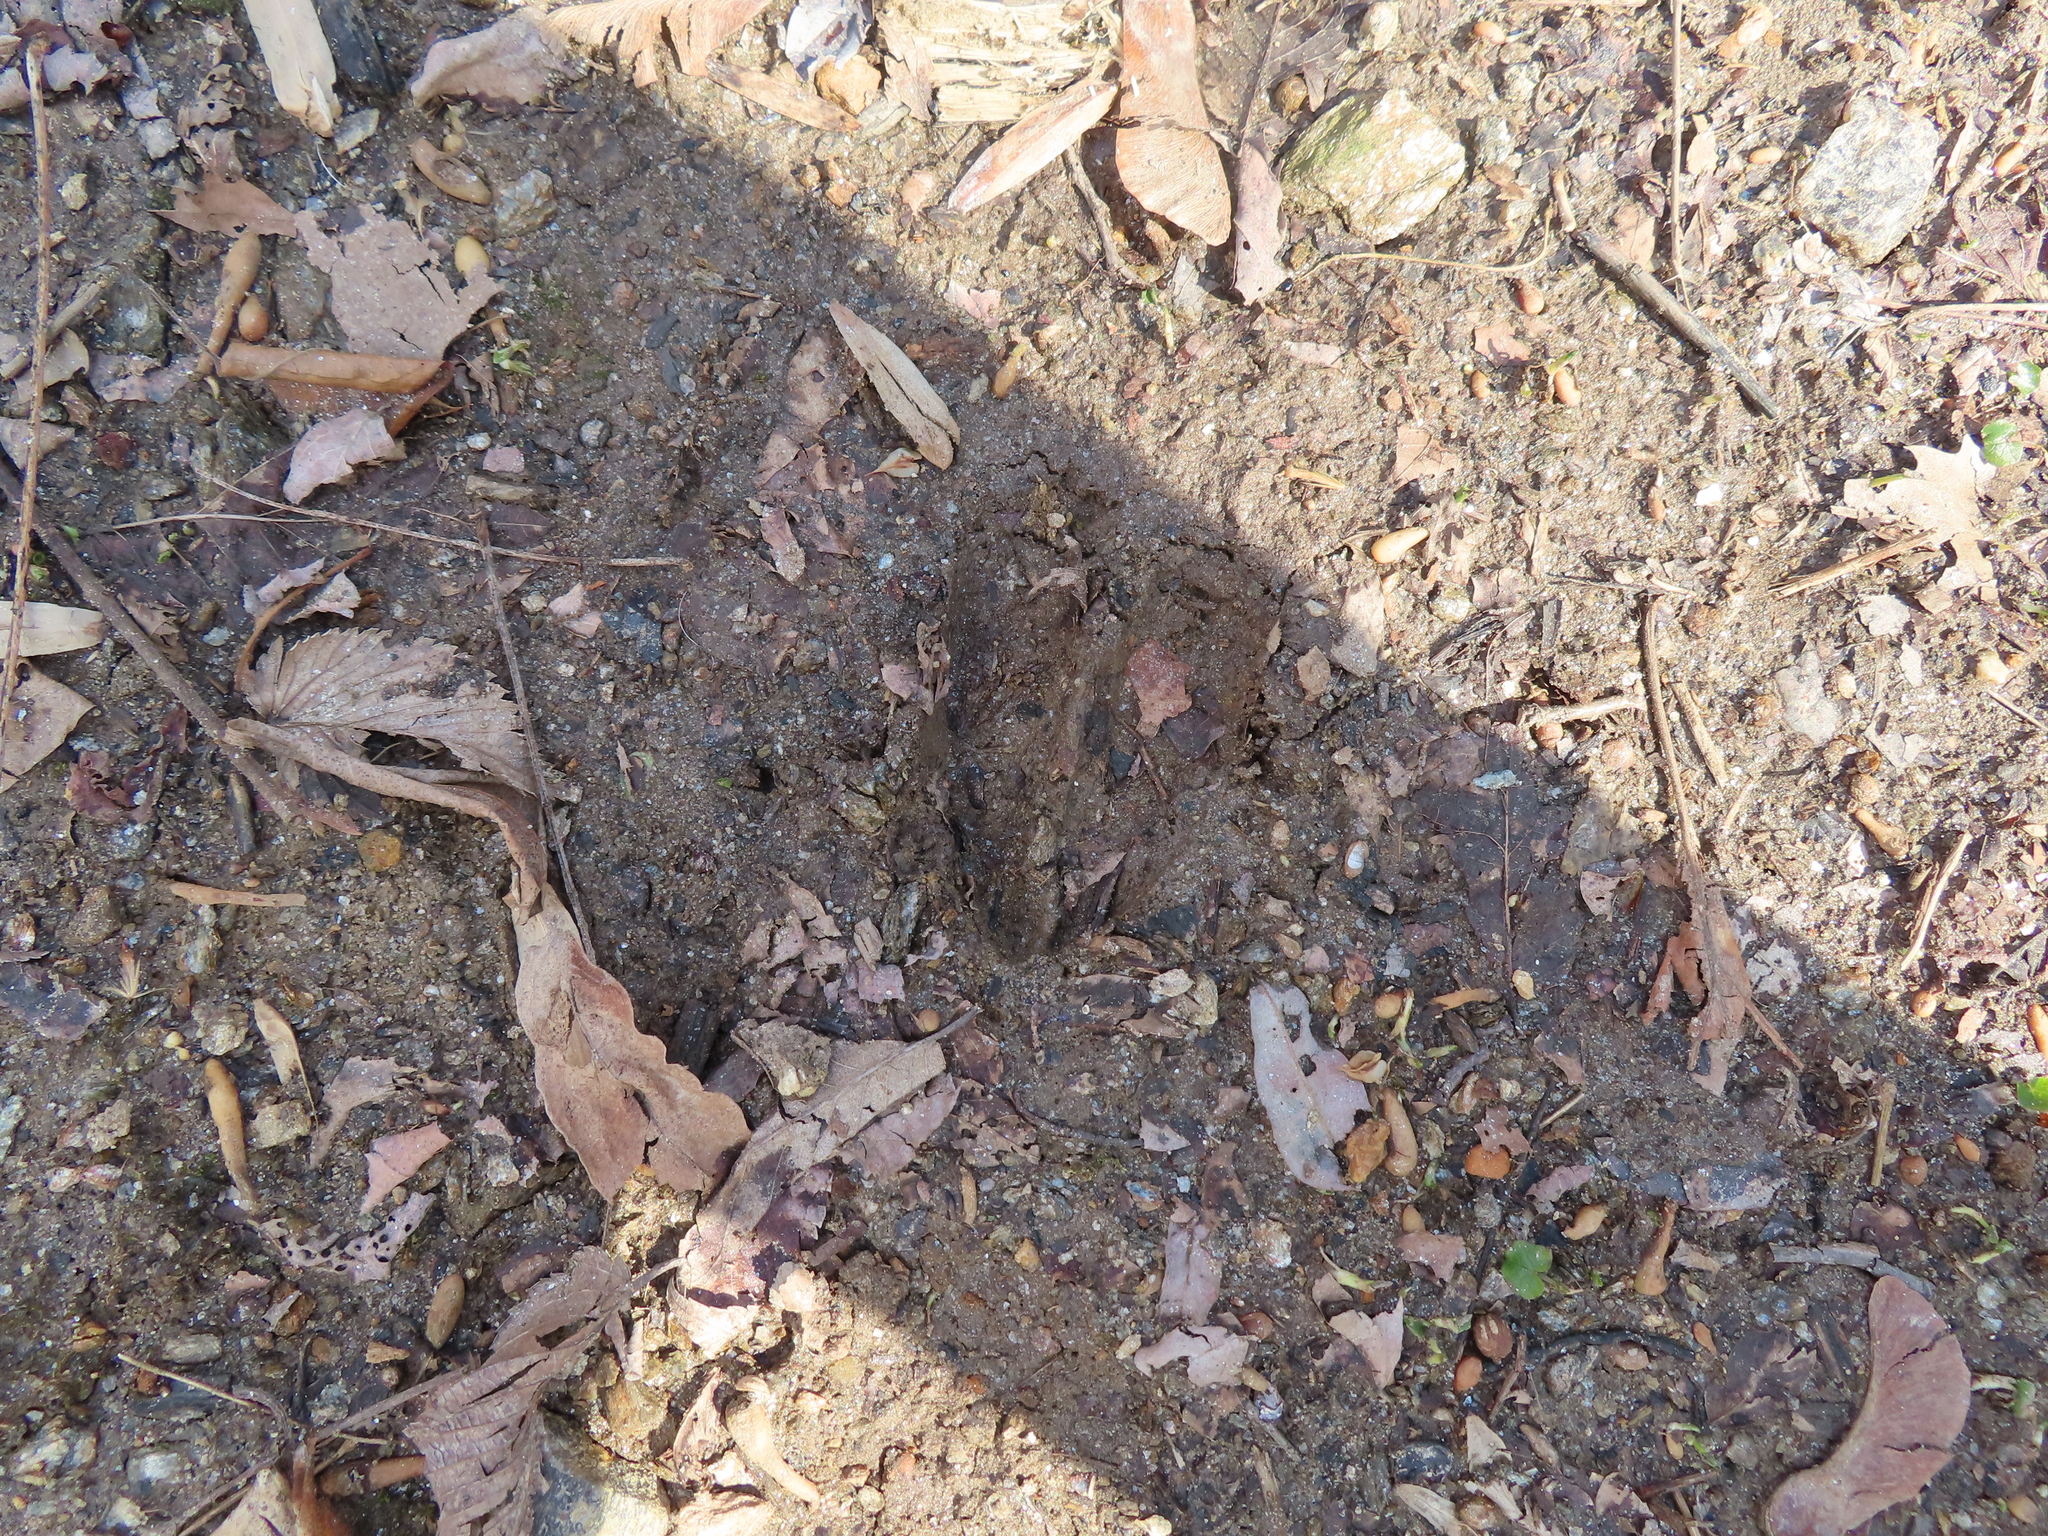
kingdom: Animalia
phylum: Chordata
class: Mammalia
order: Artiodactyla
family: Cervidae
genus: Odocoileus
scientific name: Odocoileus virginianus
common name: White-tailed deer
